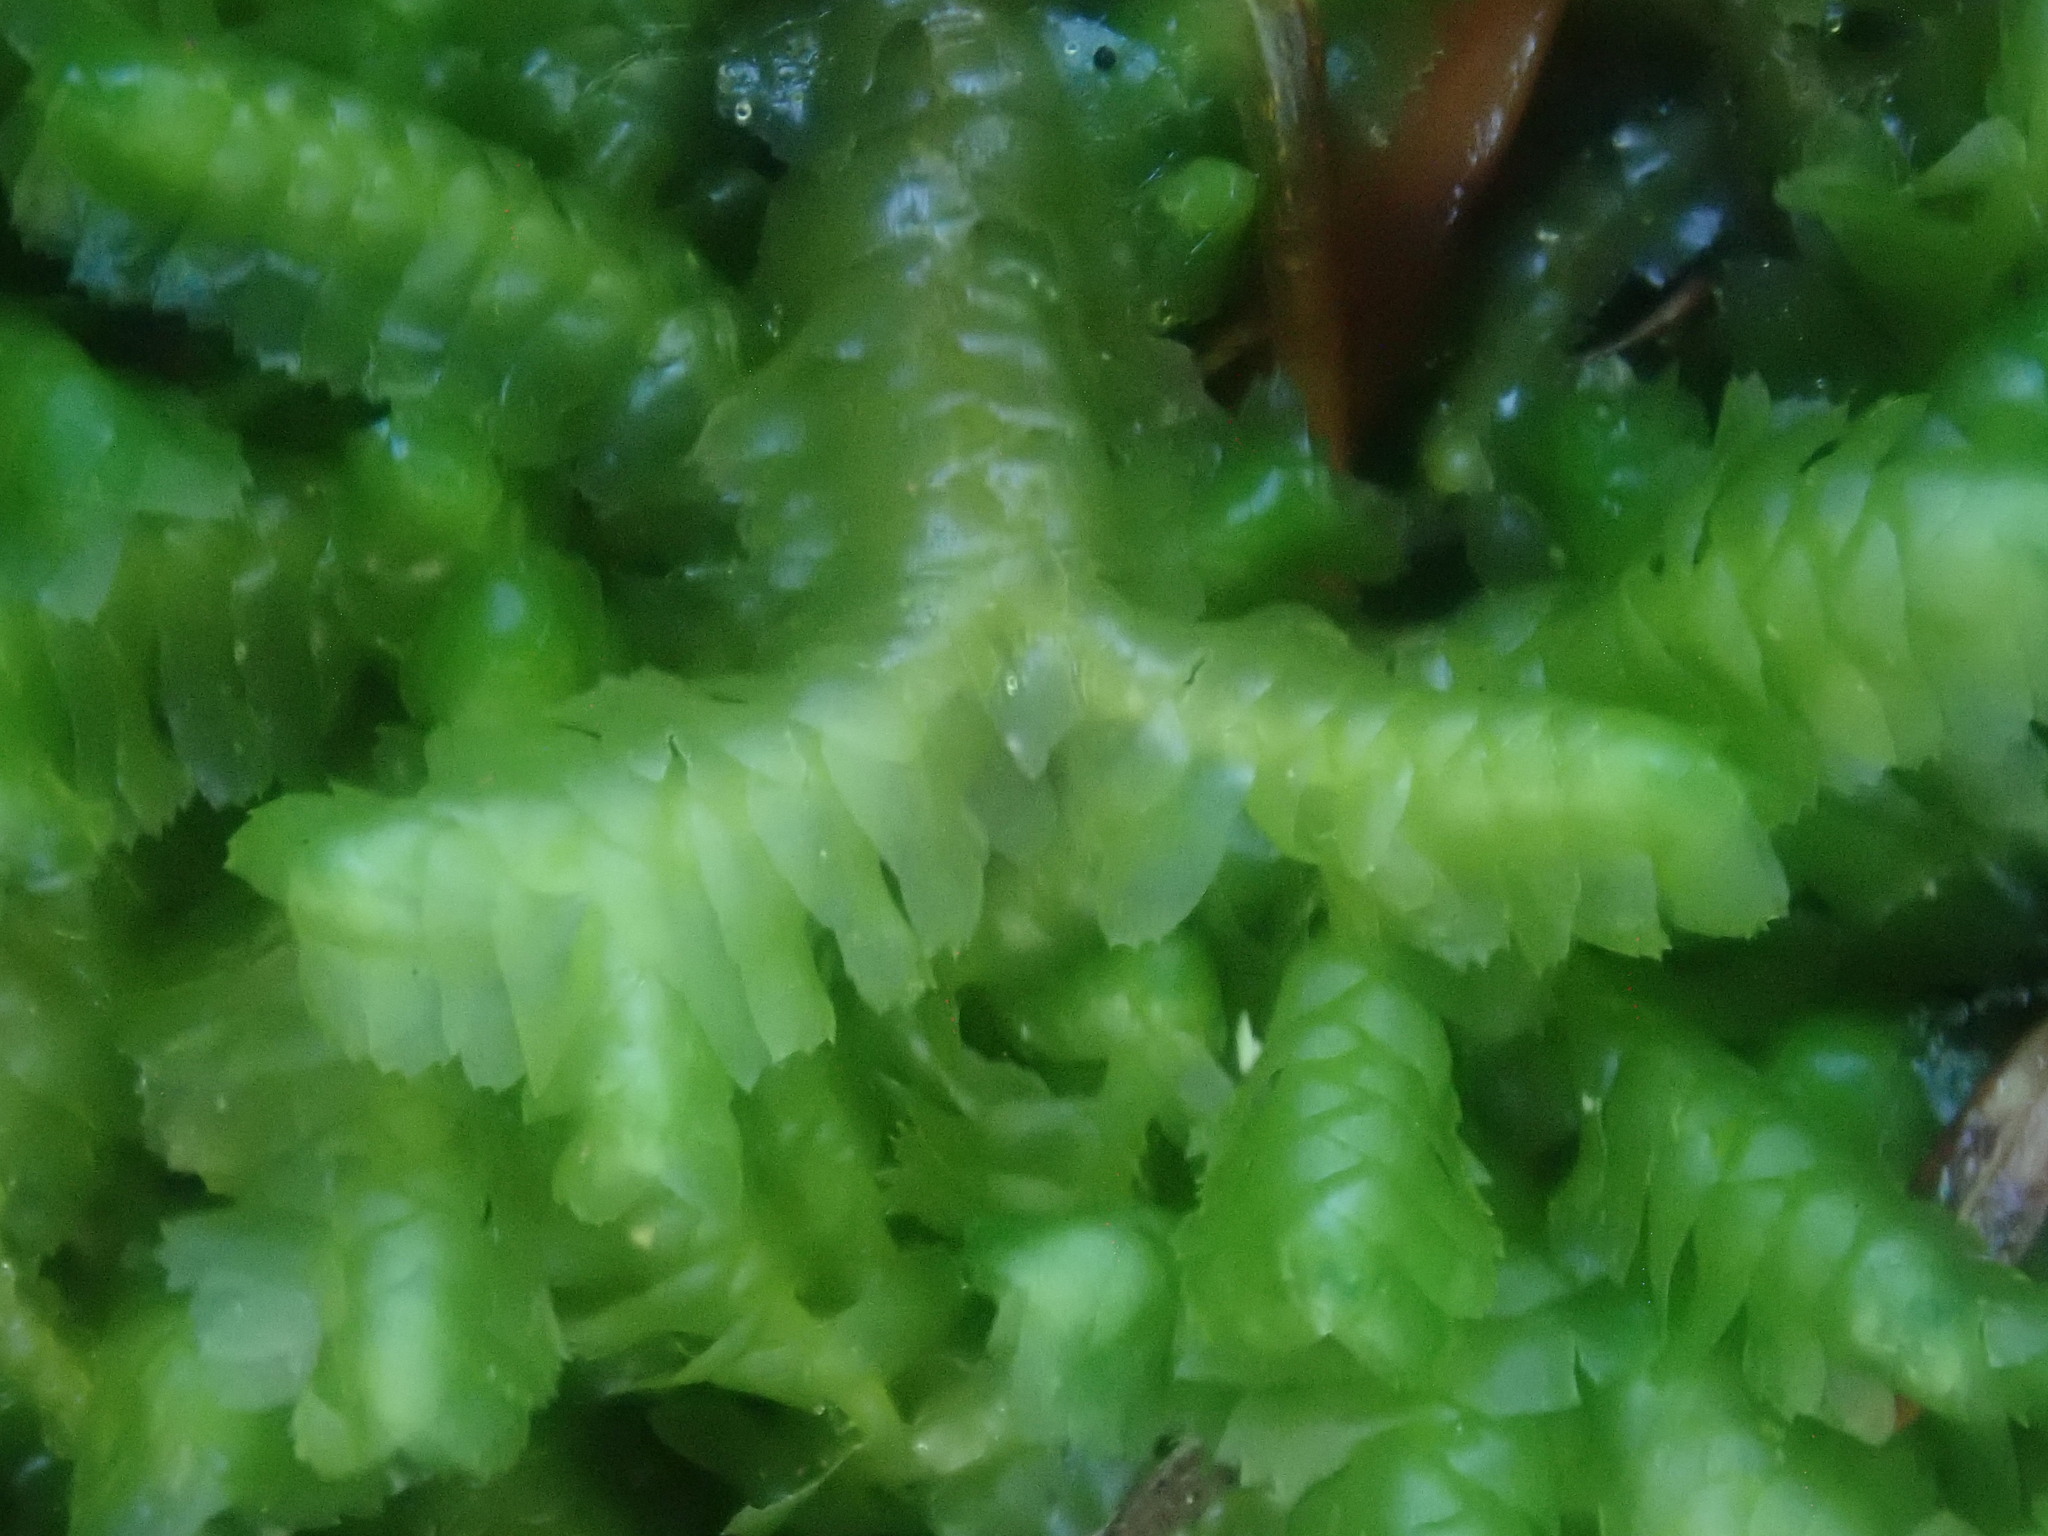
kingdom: Plantae
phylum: Marchantiophyta
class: Jungermanniopsida
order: Jungermanniales
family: Lepidoziaceae
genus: Bazzania
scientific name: Bazzania trilobata
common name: Three-lobed whipwort
